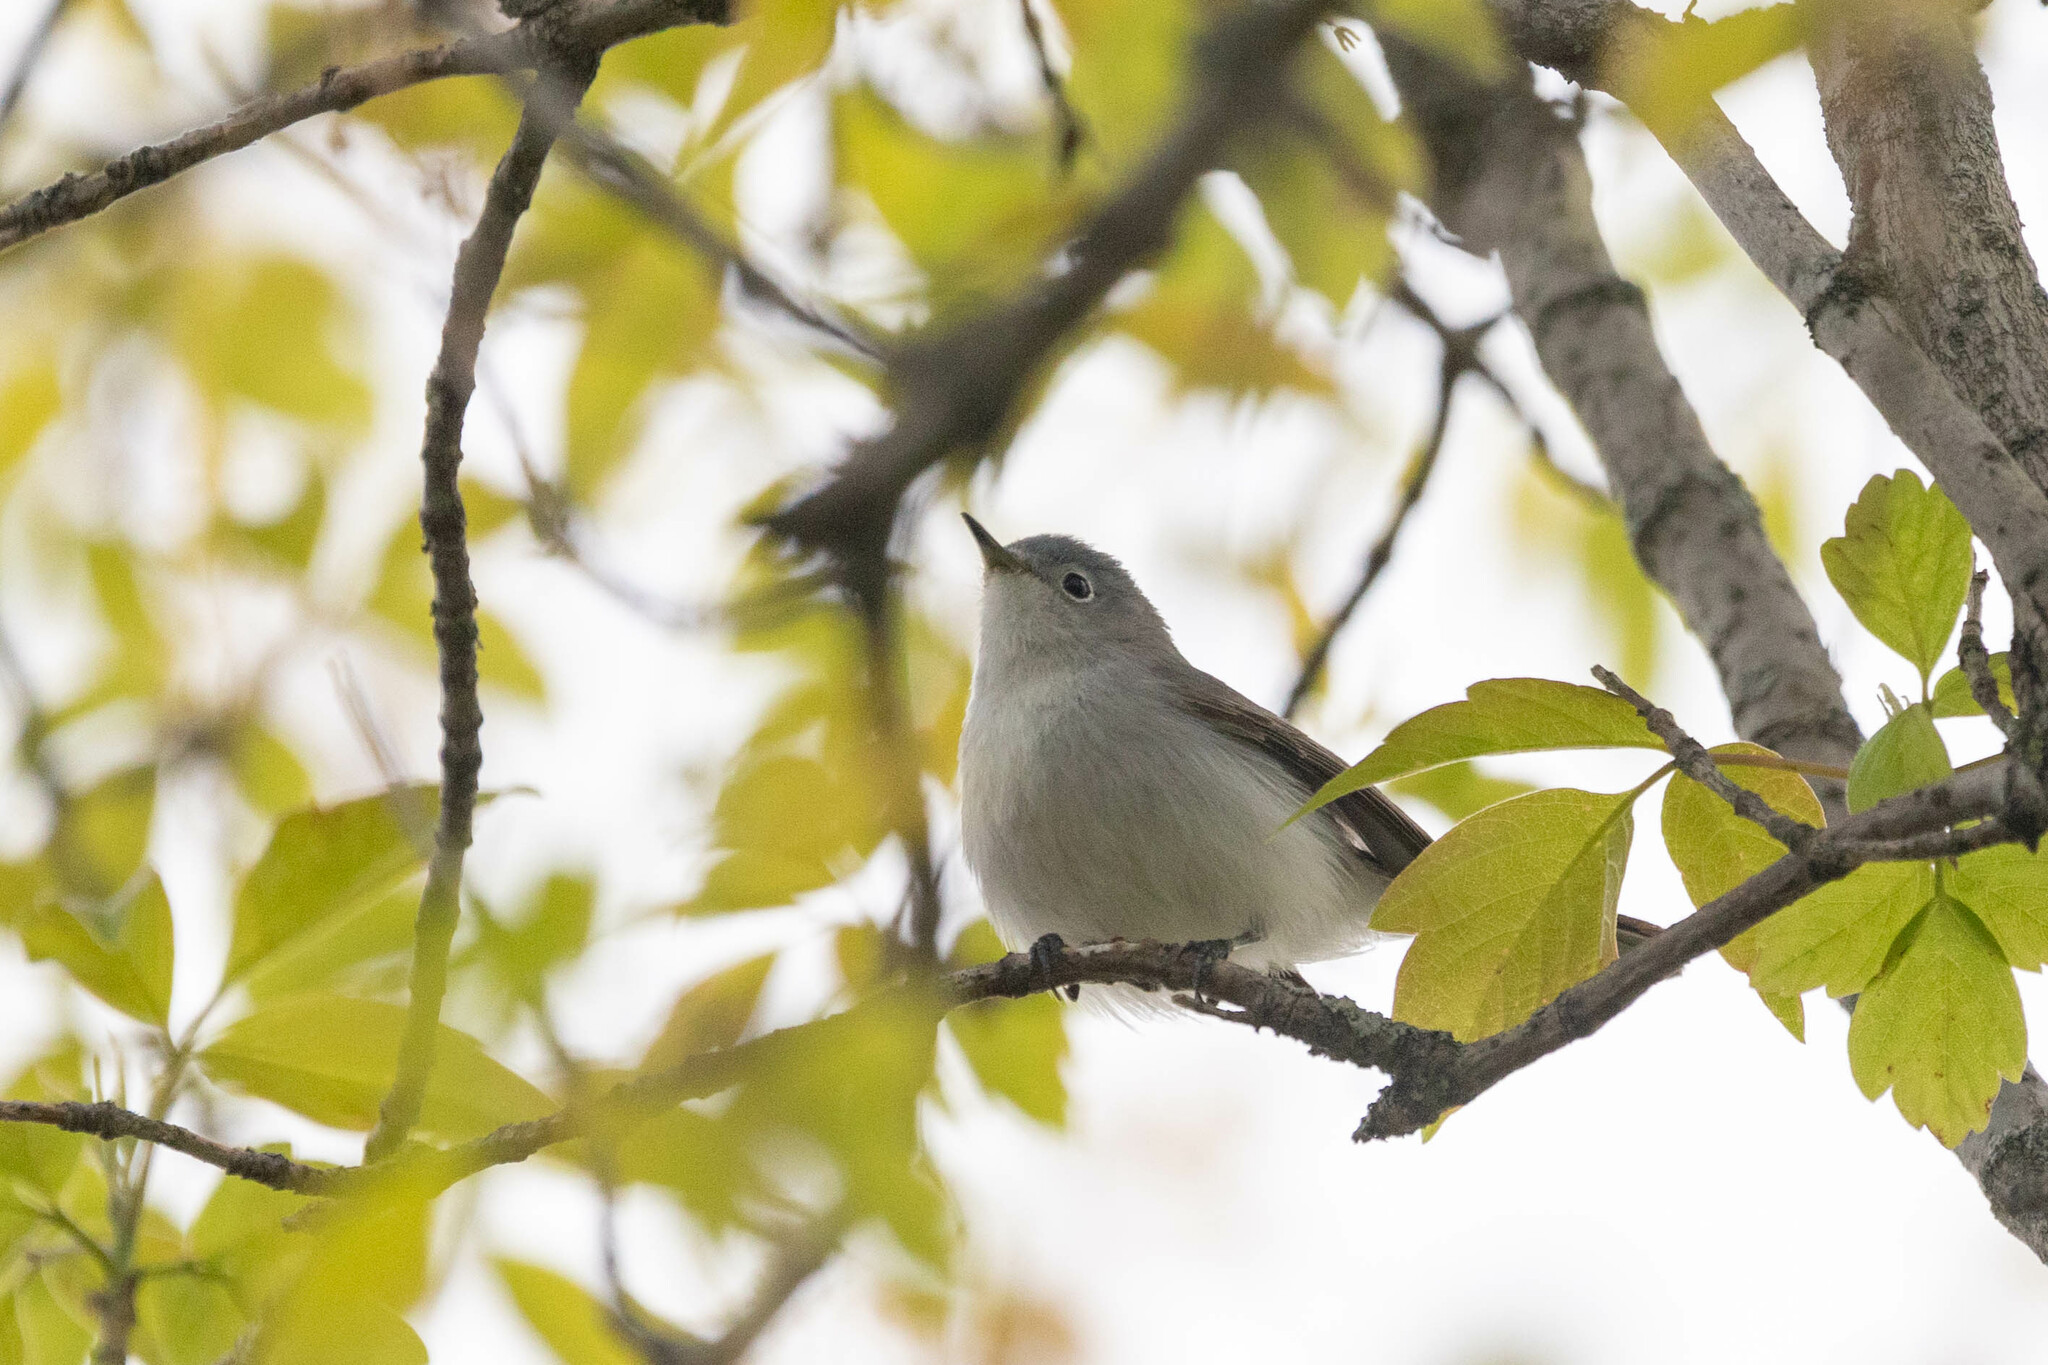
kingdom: Animalia
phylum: Chordata
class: Aves
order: Passeriformes
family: Polioptilidae
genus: Polioptila
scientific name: Polioptila caerulea
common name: Blue-gray gnatcatcher
